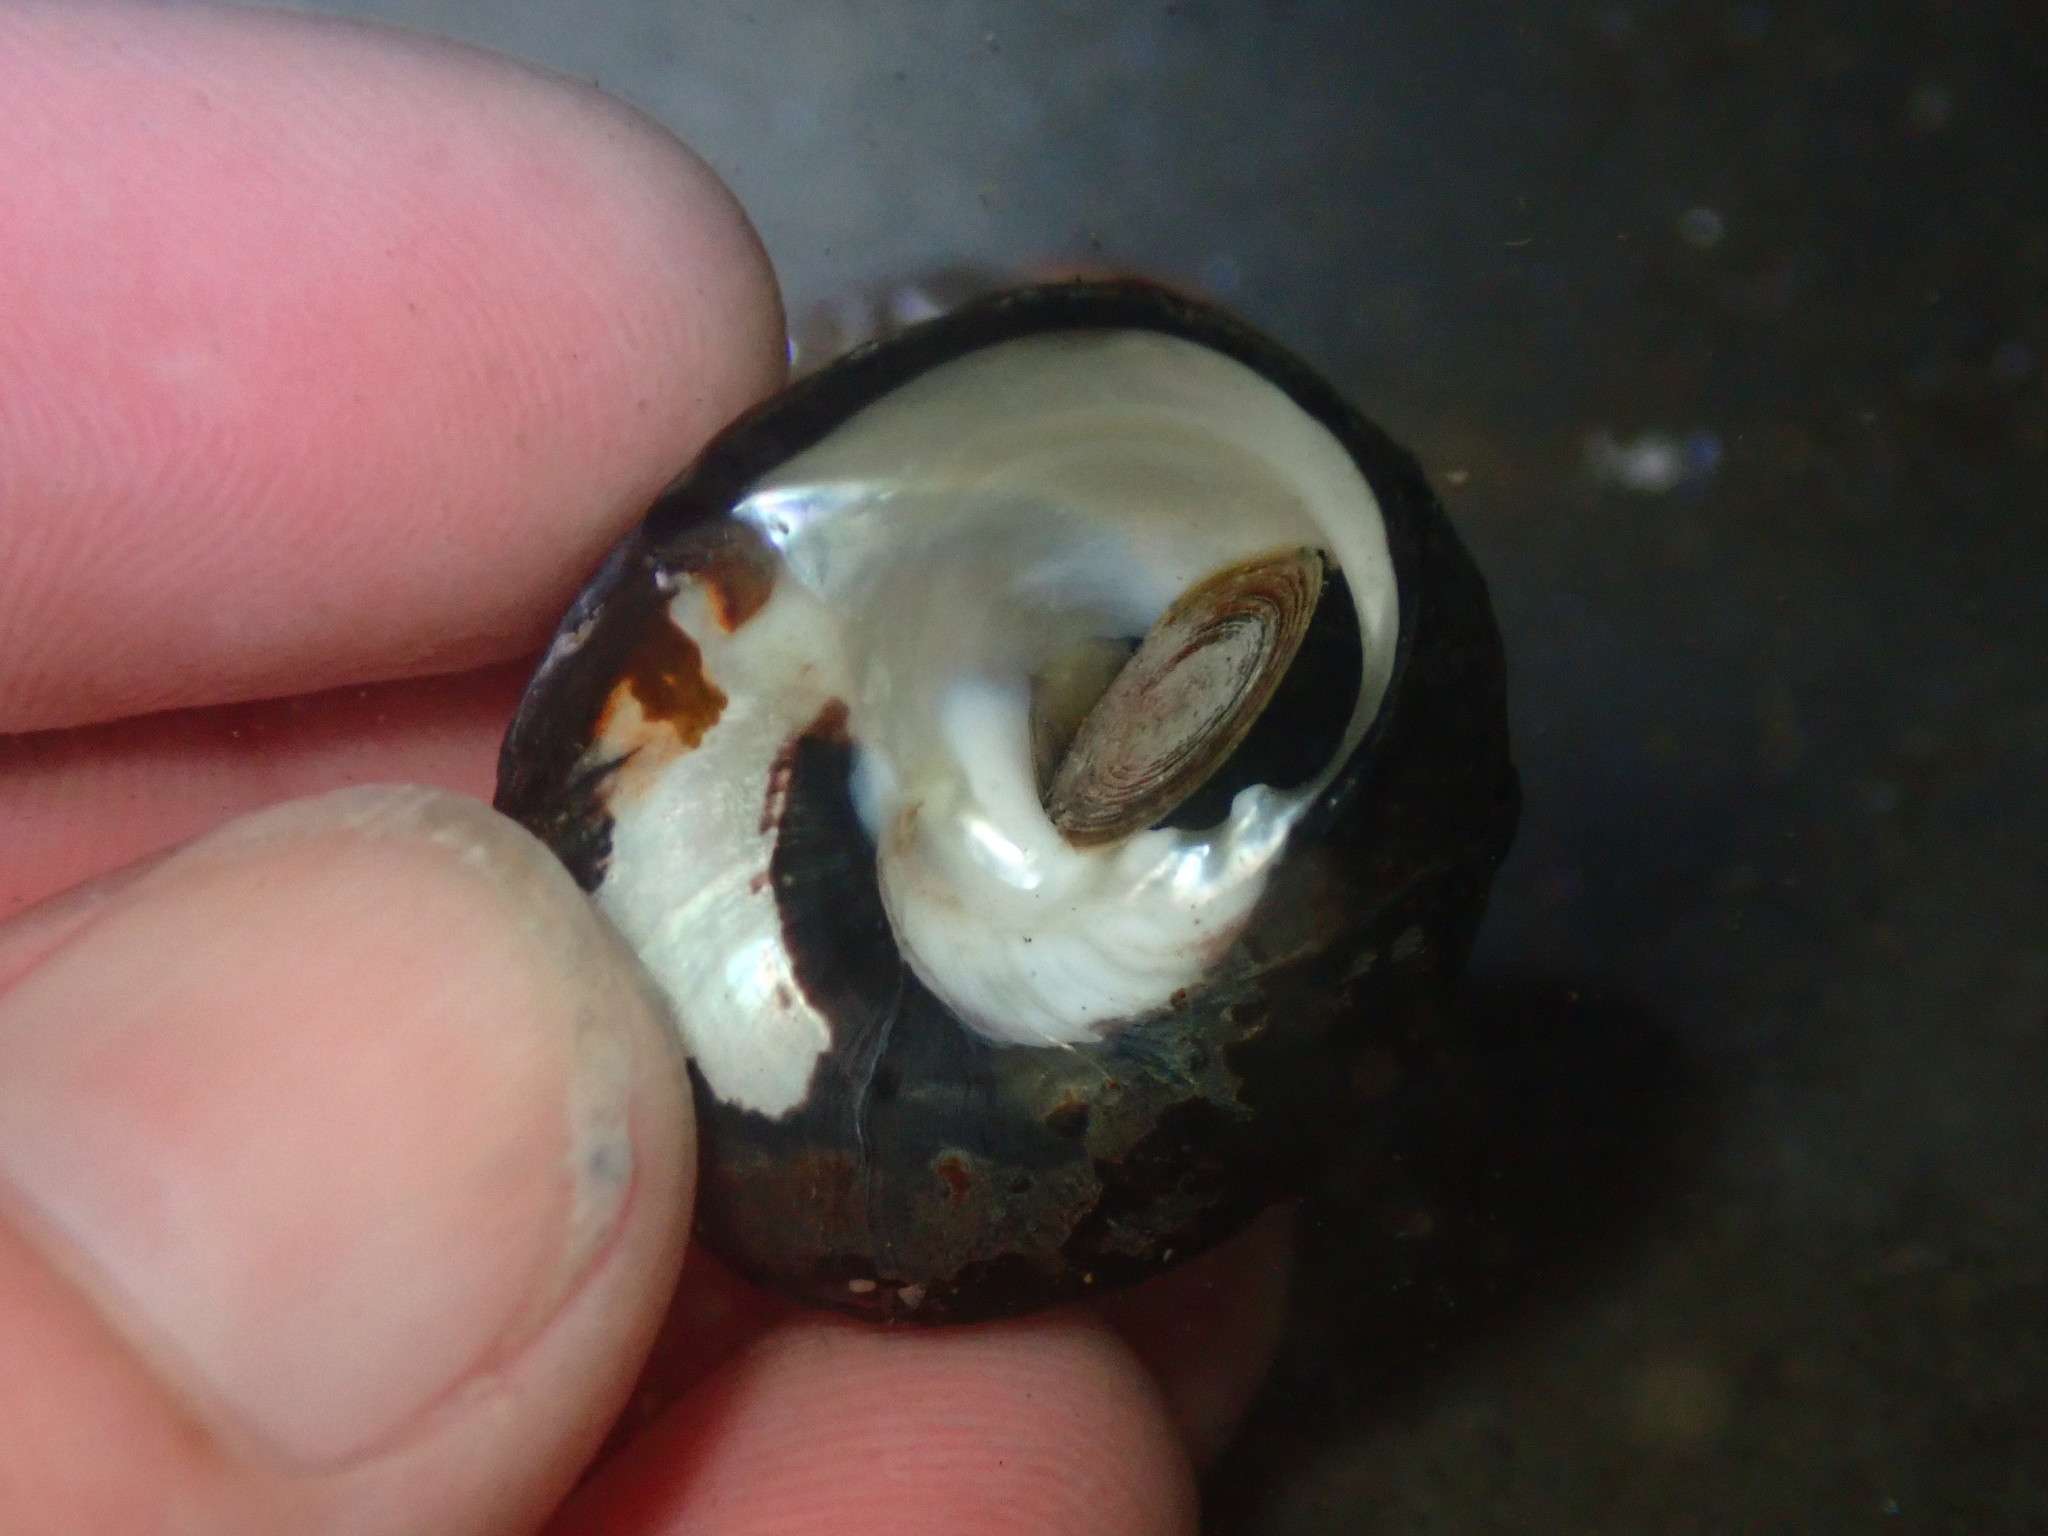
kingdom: Animalia
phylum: Mollusca
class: Gastropoda
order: Trochida
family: Tegulidae
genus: Tegula
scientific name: Tegula funebralis
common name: Black tegula
